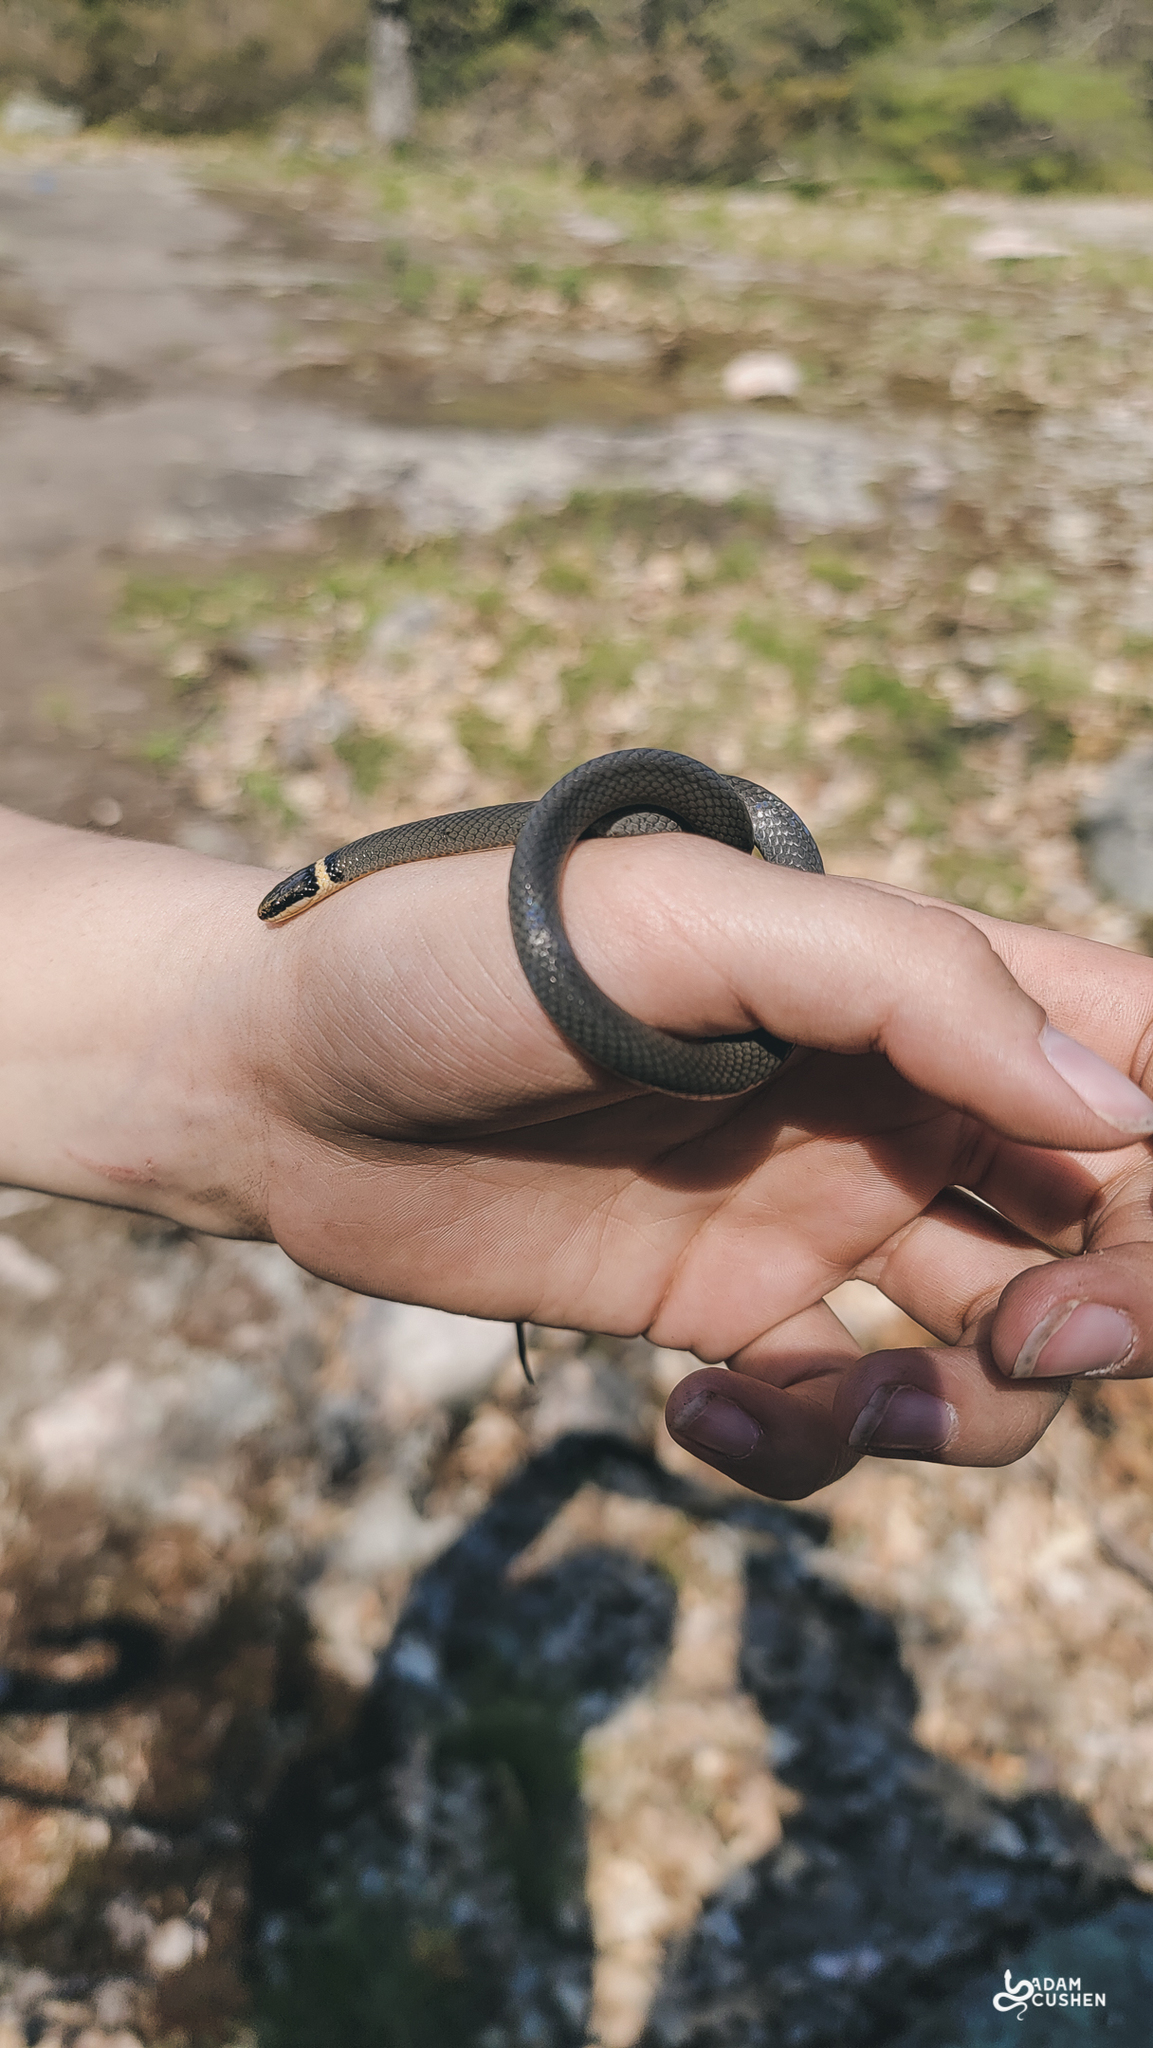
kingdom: Animalia
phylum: Chordata
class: Squamata
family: Colubridae
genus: Diadophis
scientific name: Diadophis punctatus
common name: Ringneck snake
